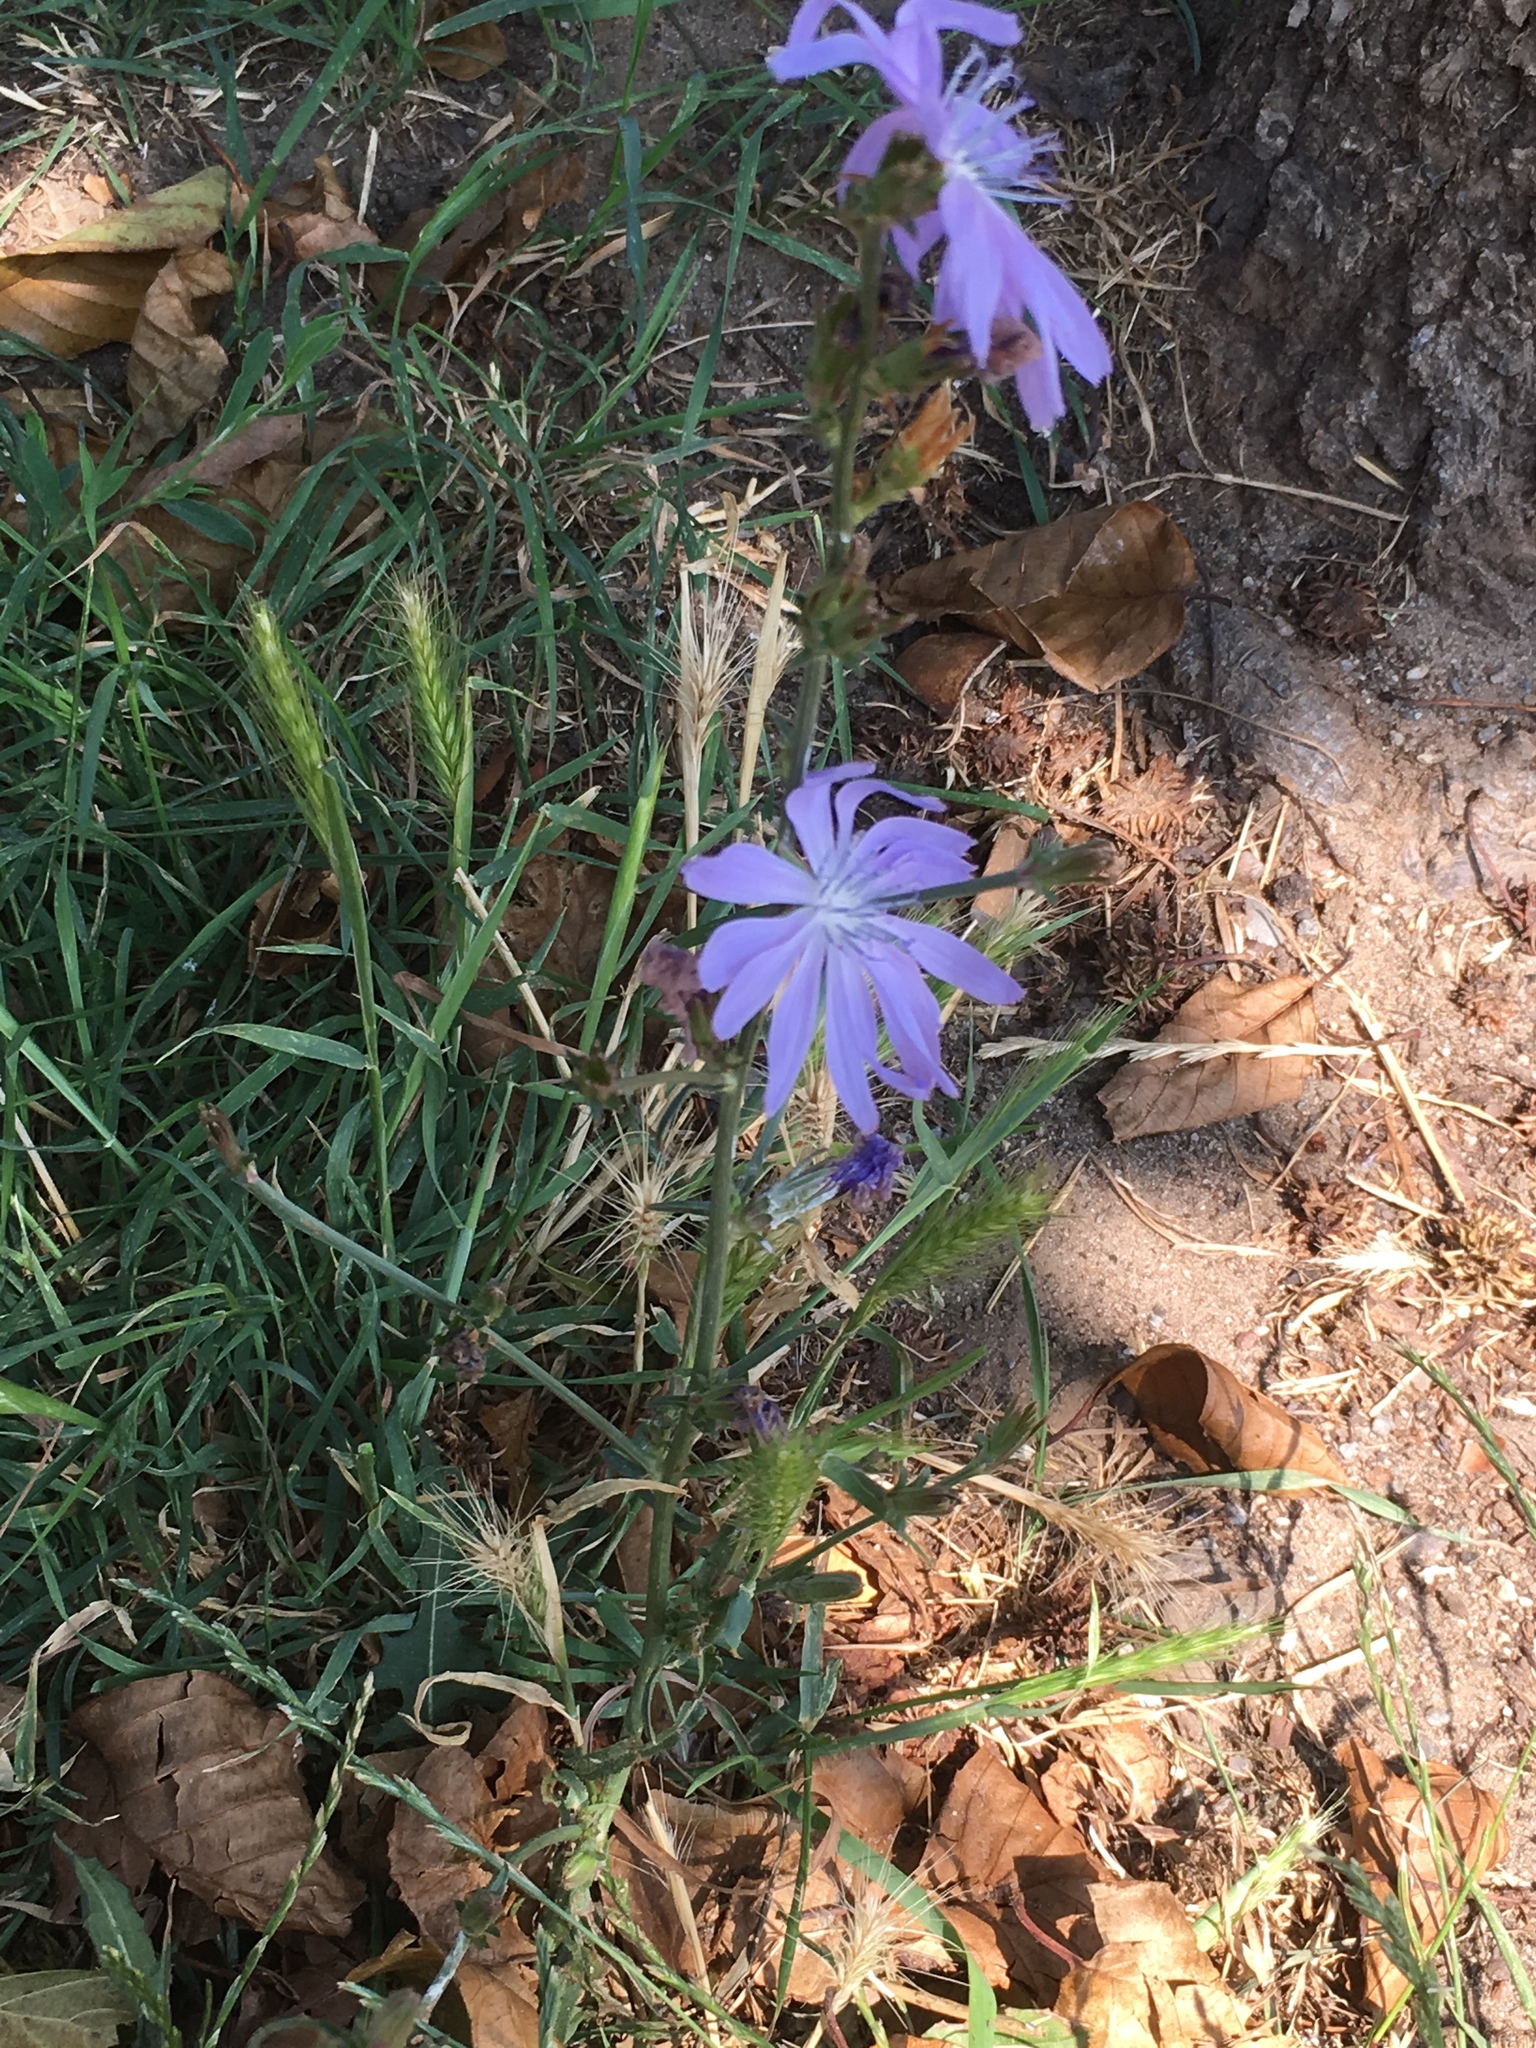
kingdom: Plantae
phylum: Tracheophyta
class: Magnoliopsida
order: Asterales
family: Asteraceae
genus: Cichorium
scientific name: Cichorium intybus
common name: Chicory
